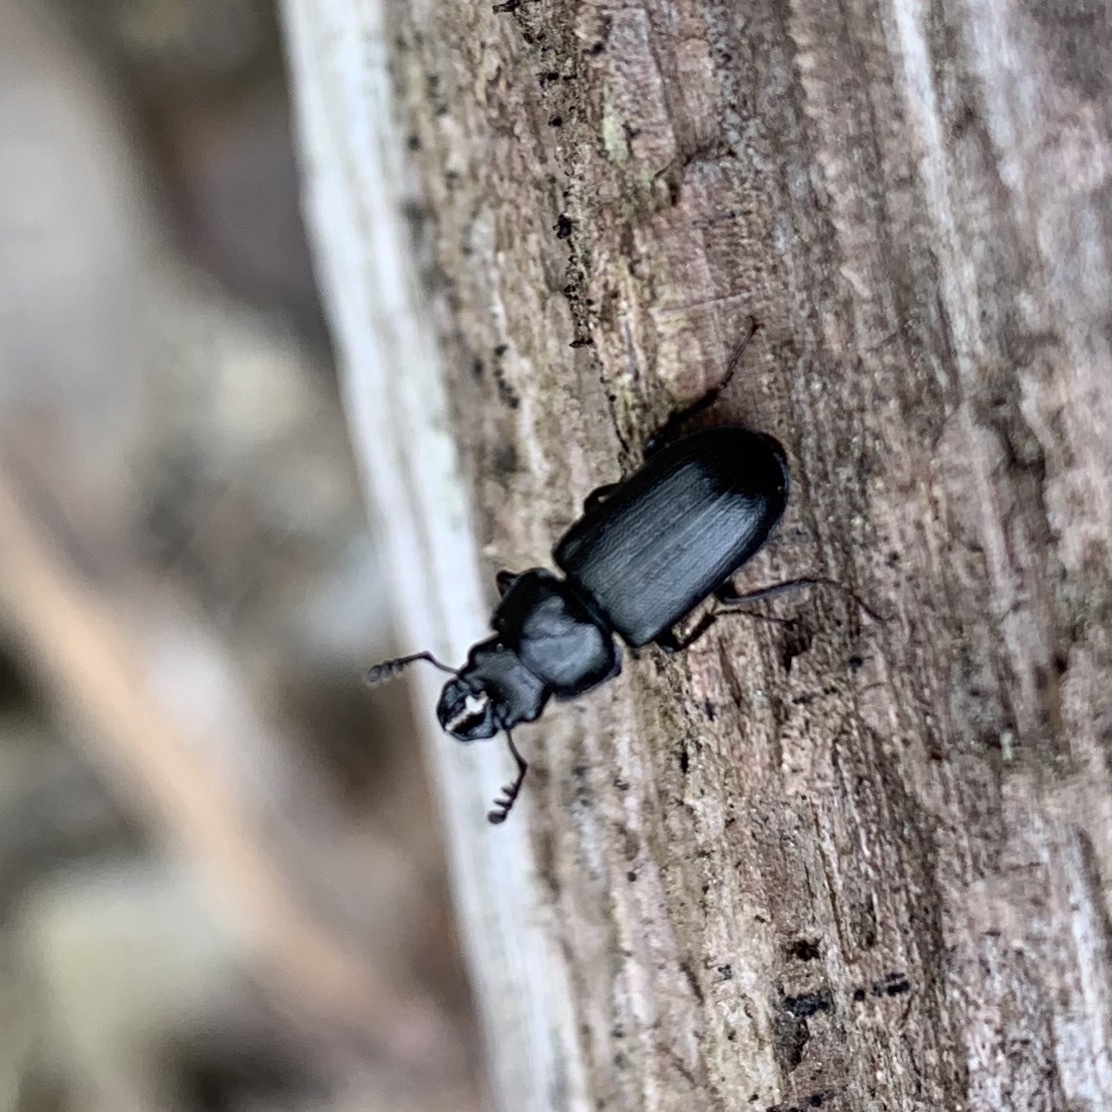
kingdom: Animalia
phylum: Arthropoda
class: Insecta
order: Coleoptera
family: Lucanidae
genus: Platycerus
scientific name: Platycerus quercus
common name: Oak stag beetle
